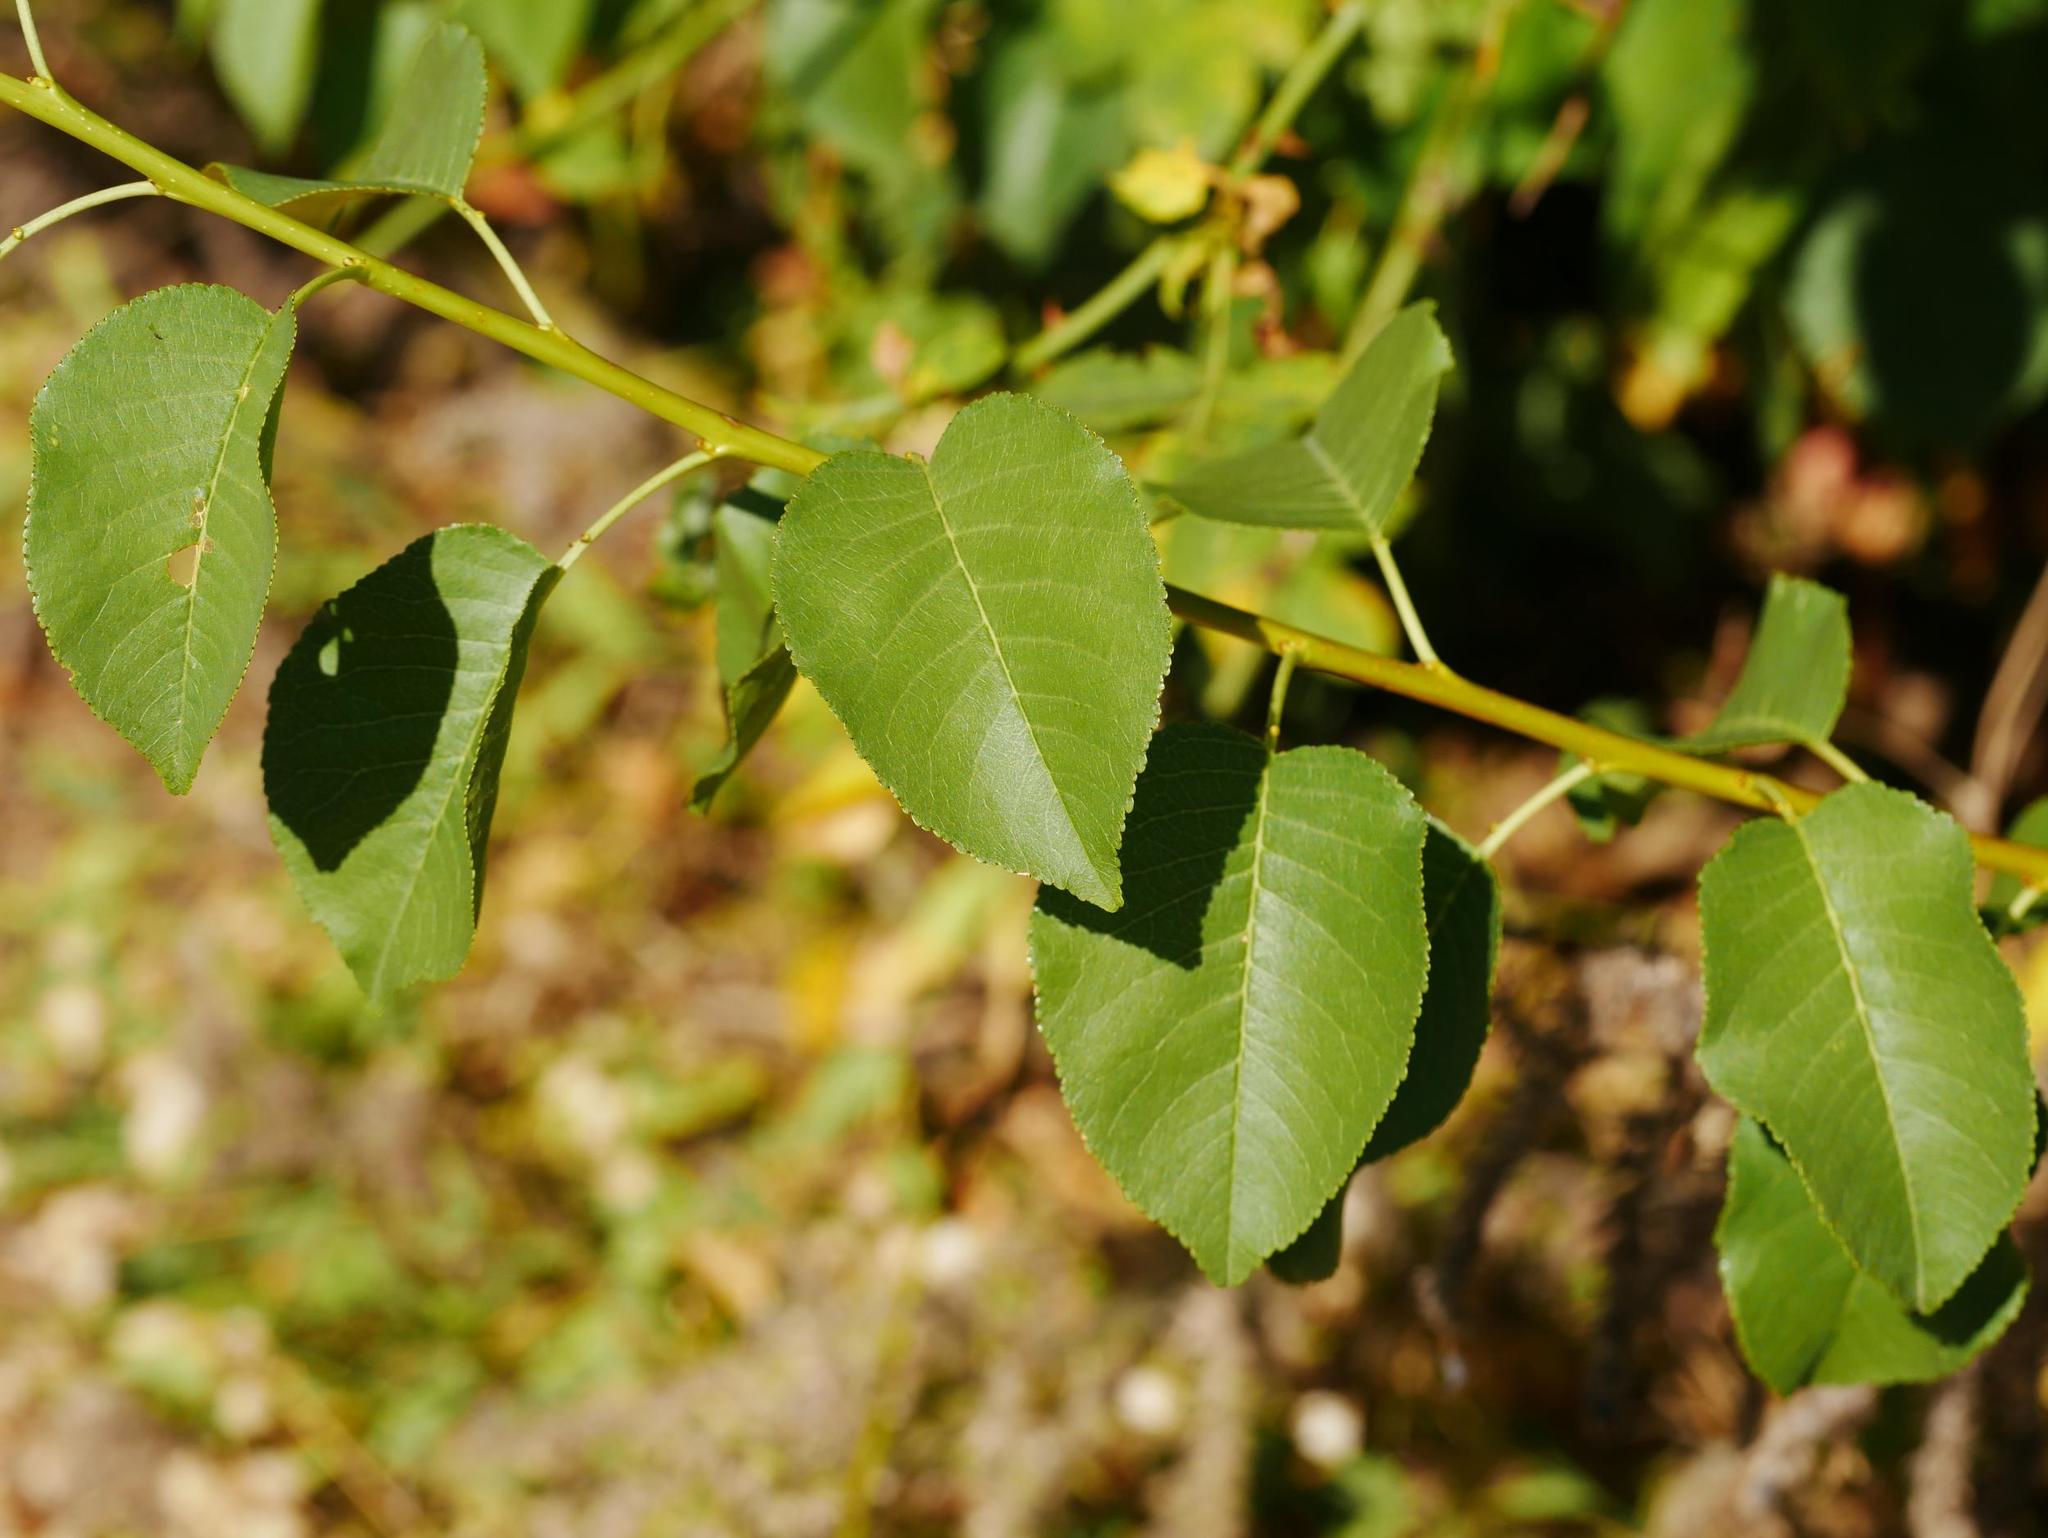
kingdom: Plantae
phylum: Tracheophyta
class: Magnoliopsida
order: Rosales
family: Rosaceae
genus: Prunus
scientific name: Prunus mahaleb
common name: Mahaleb cherry
